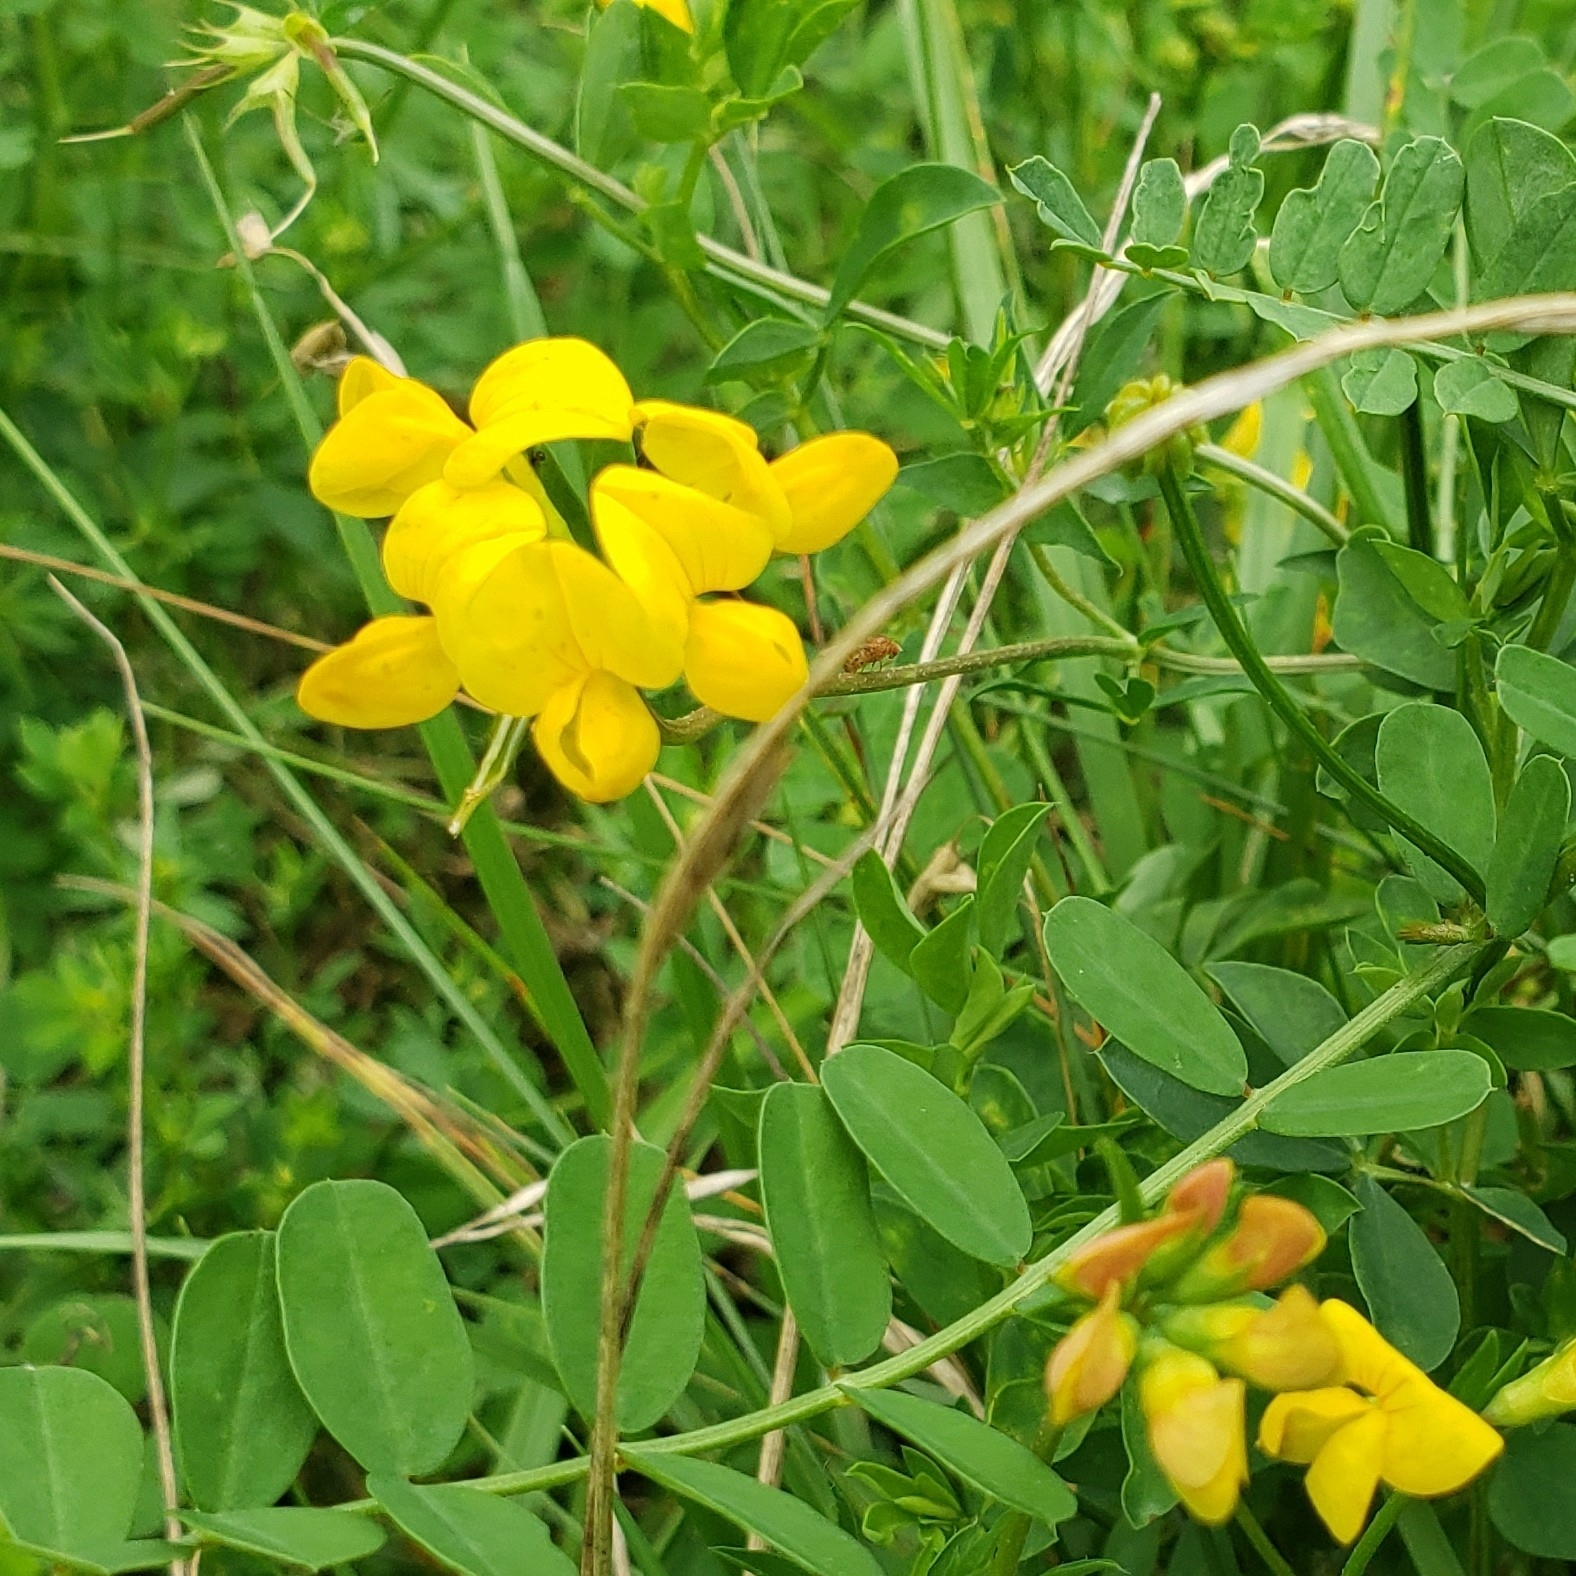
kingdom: Plantae
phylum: Tracheophyta
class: Magnoliopsida
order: Fabales
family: Fabaceae
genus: Lotus
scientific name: Lotus corniculatus
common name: Common bird's-foot-trefoil
